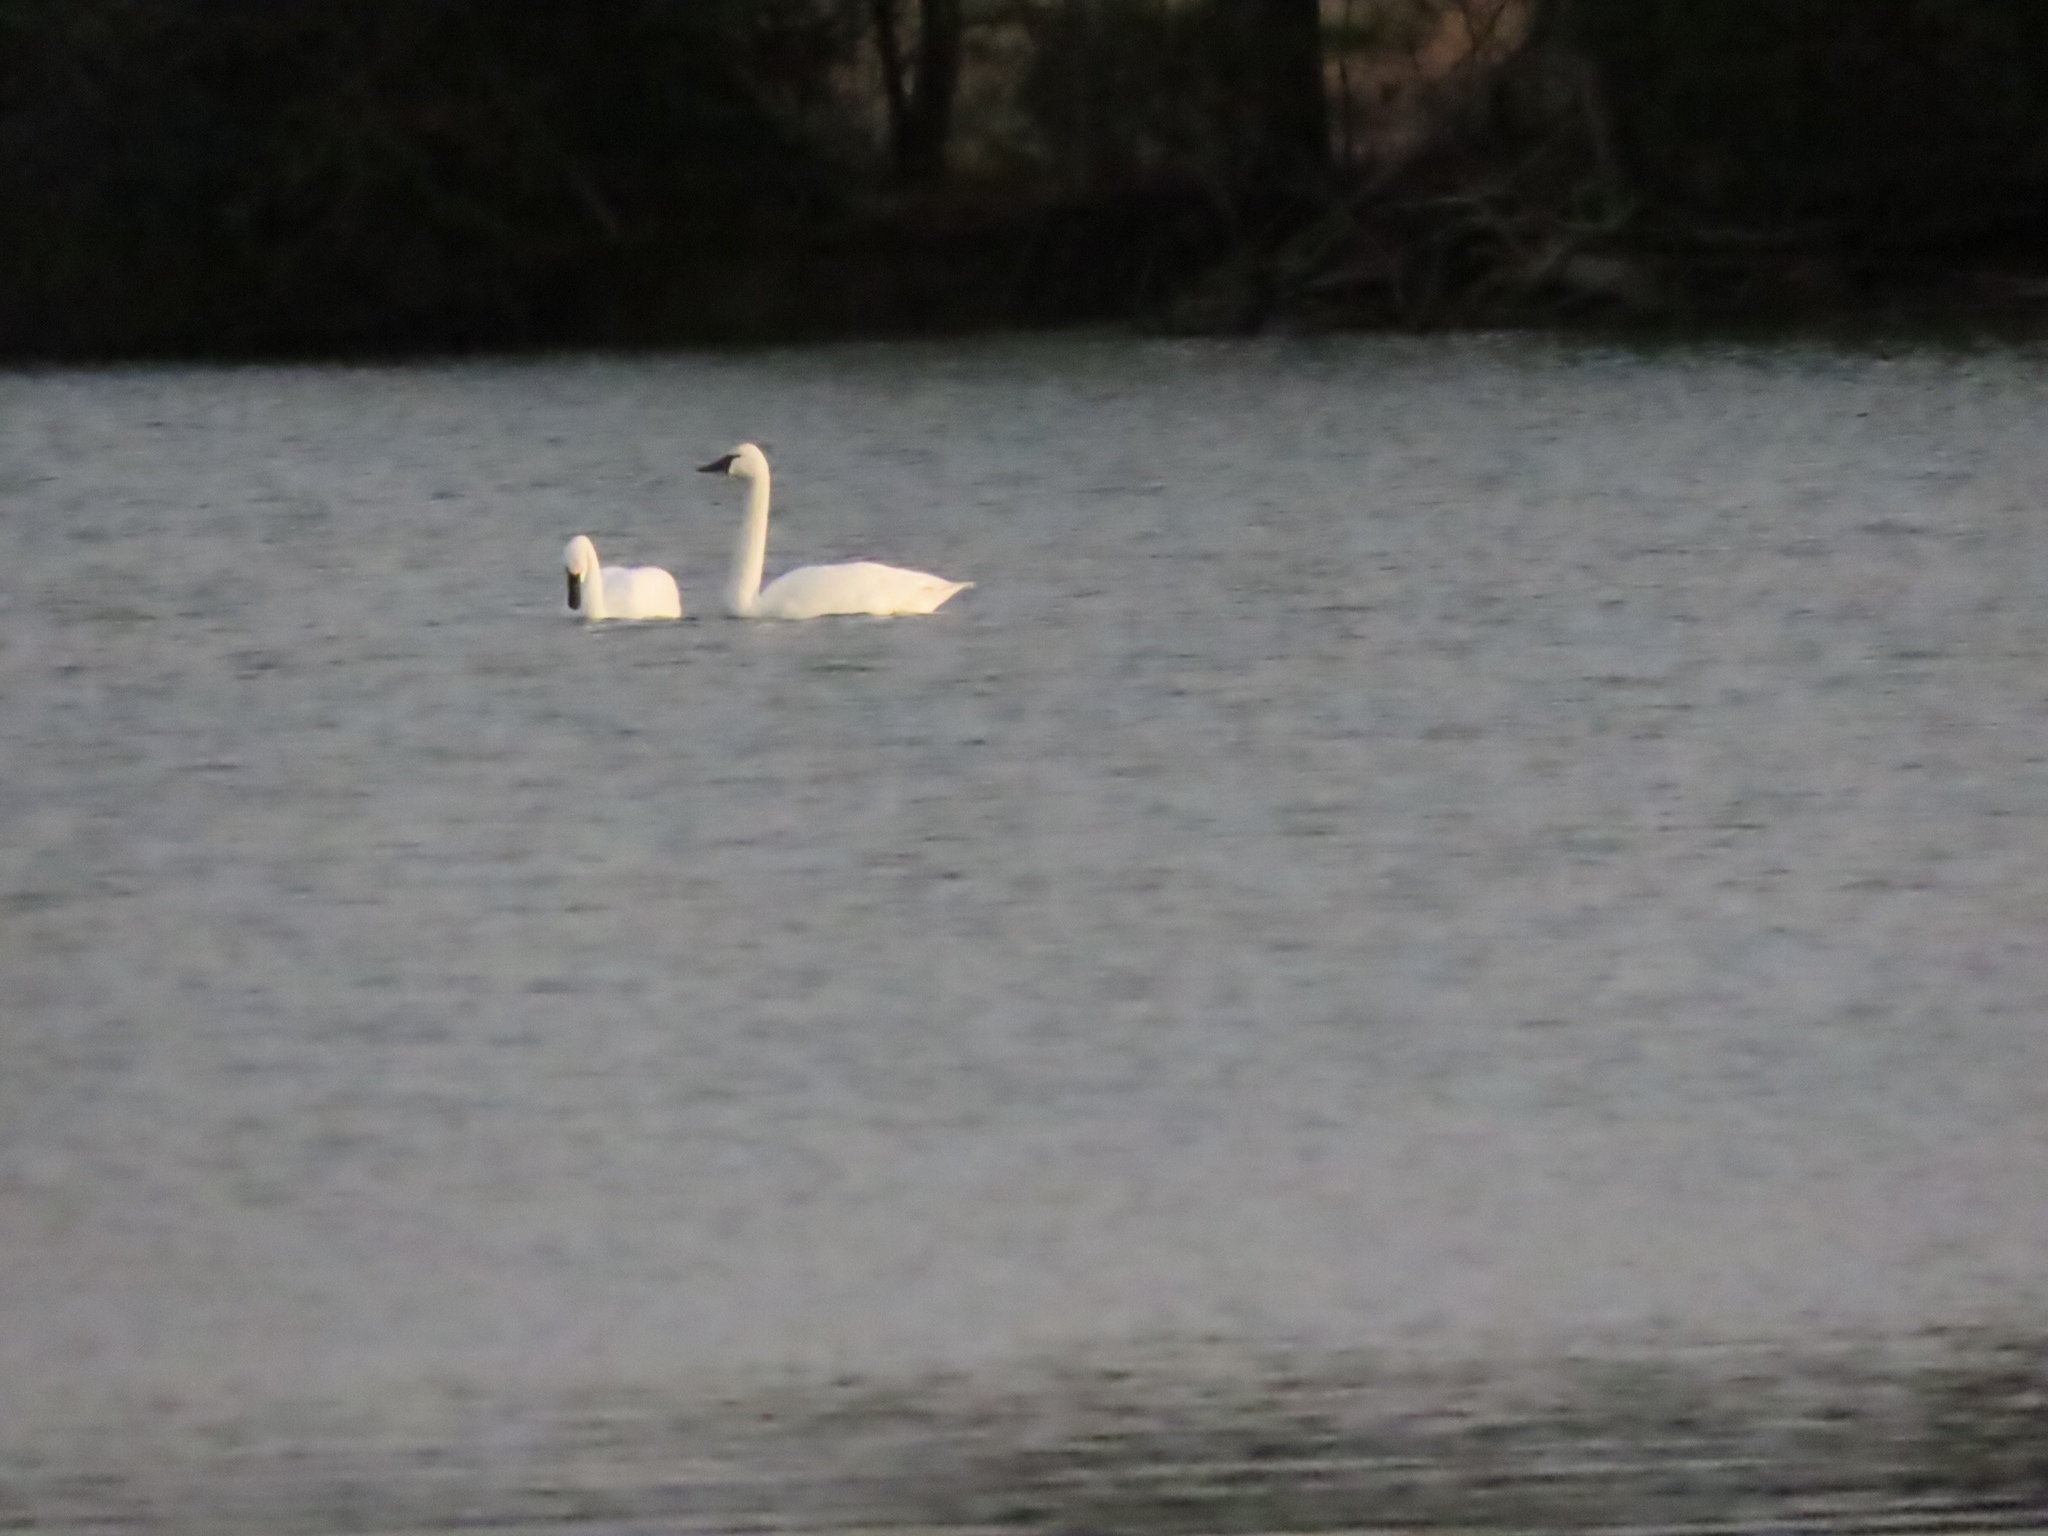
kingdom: Animalia
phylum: Chordata
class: Aves
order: Anseriformes
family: Anatidae
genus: Cygnus
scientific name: Cygnus columbianus
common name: Tundra swan
